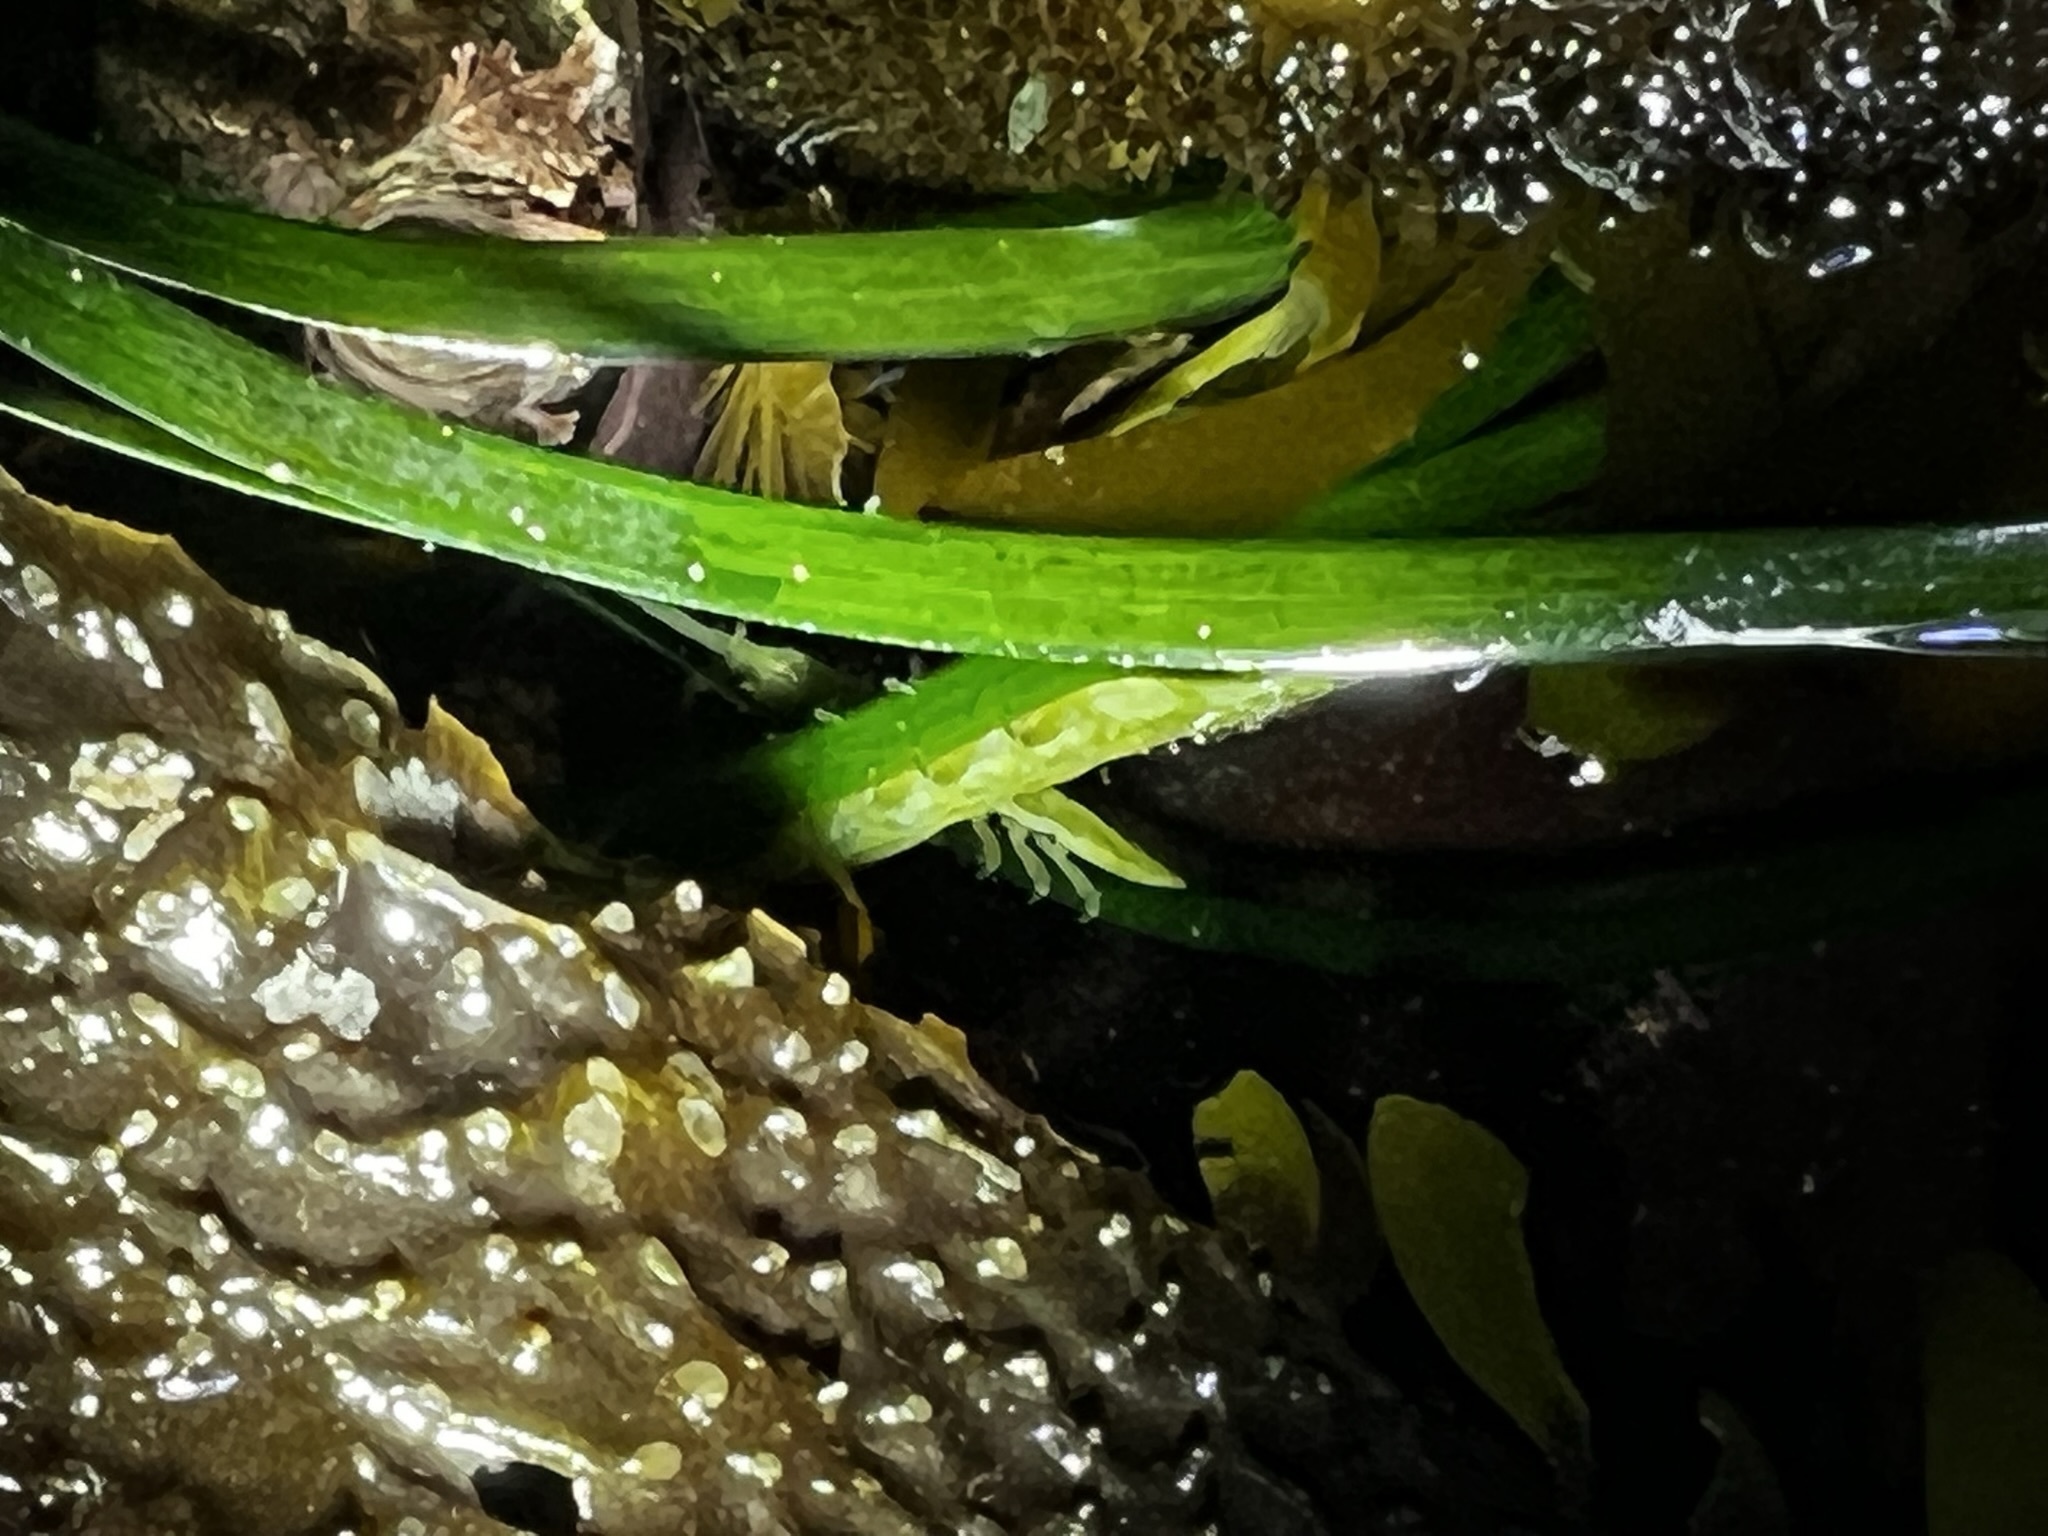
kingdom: Animalia
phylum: Arthropoda
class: Malacostraca
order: Isopoda
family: Idoteidae
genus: Pentidotea
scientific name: Pentidotea montereyensis
